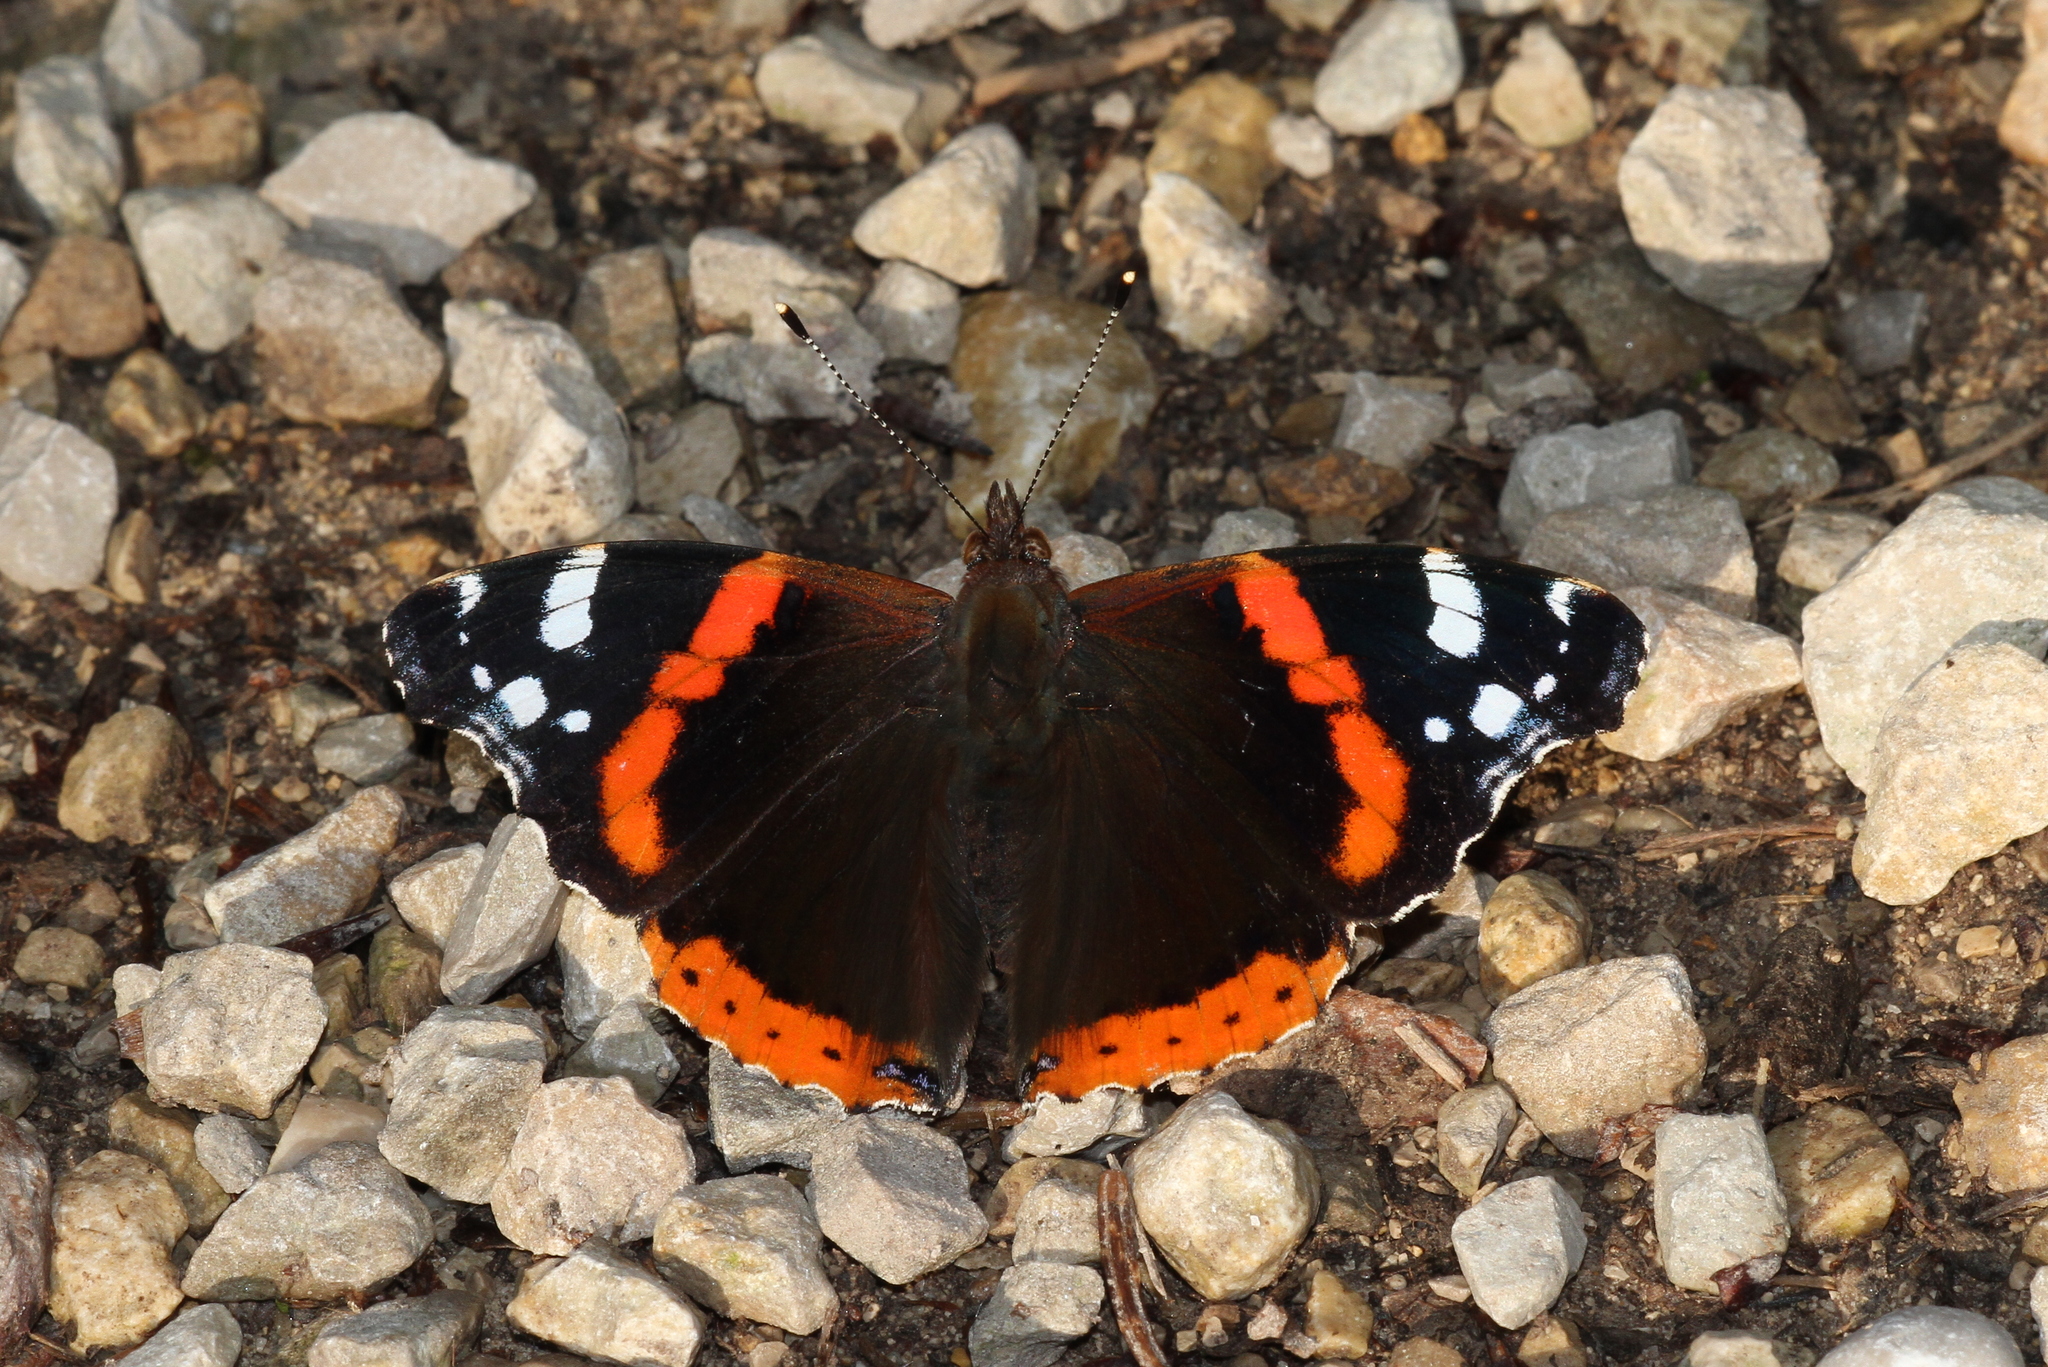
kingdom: Animalia
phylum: Arthropoda
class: Insecta
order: Lepidoptera
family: Nymphalidae
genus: Vanessa
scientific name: Vanessa atalanta
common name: Red admiral
